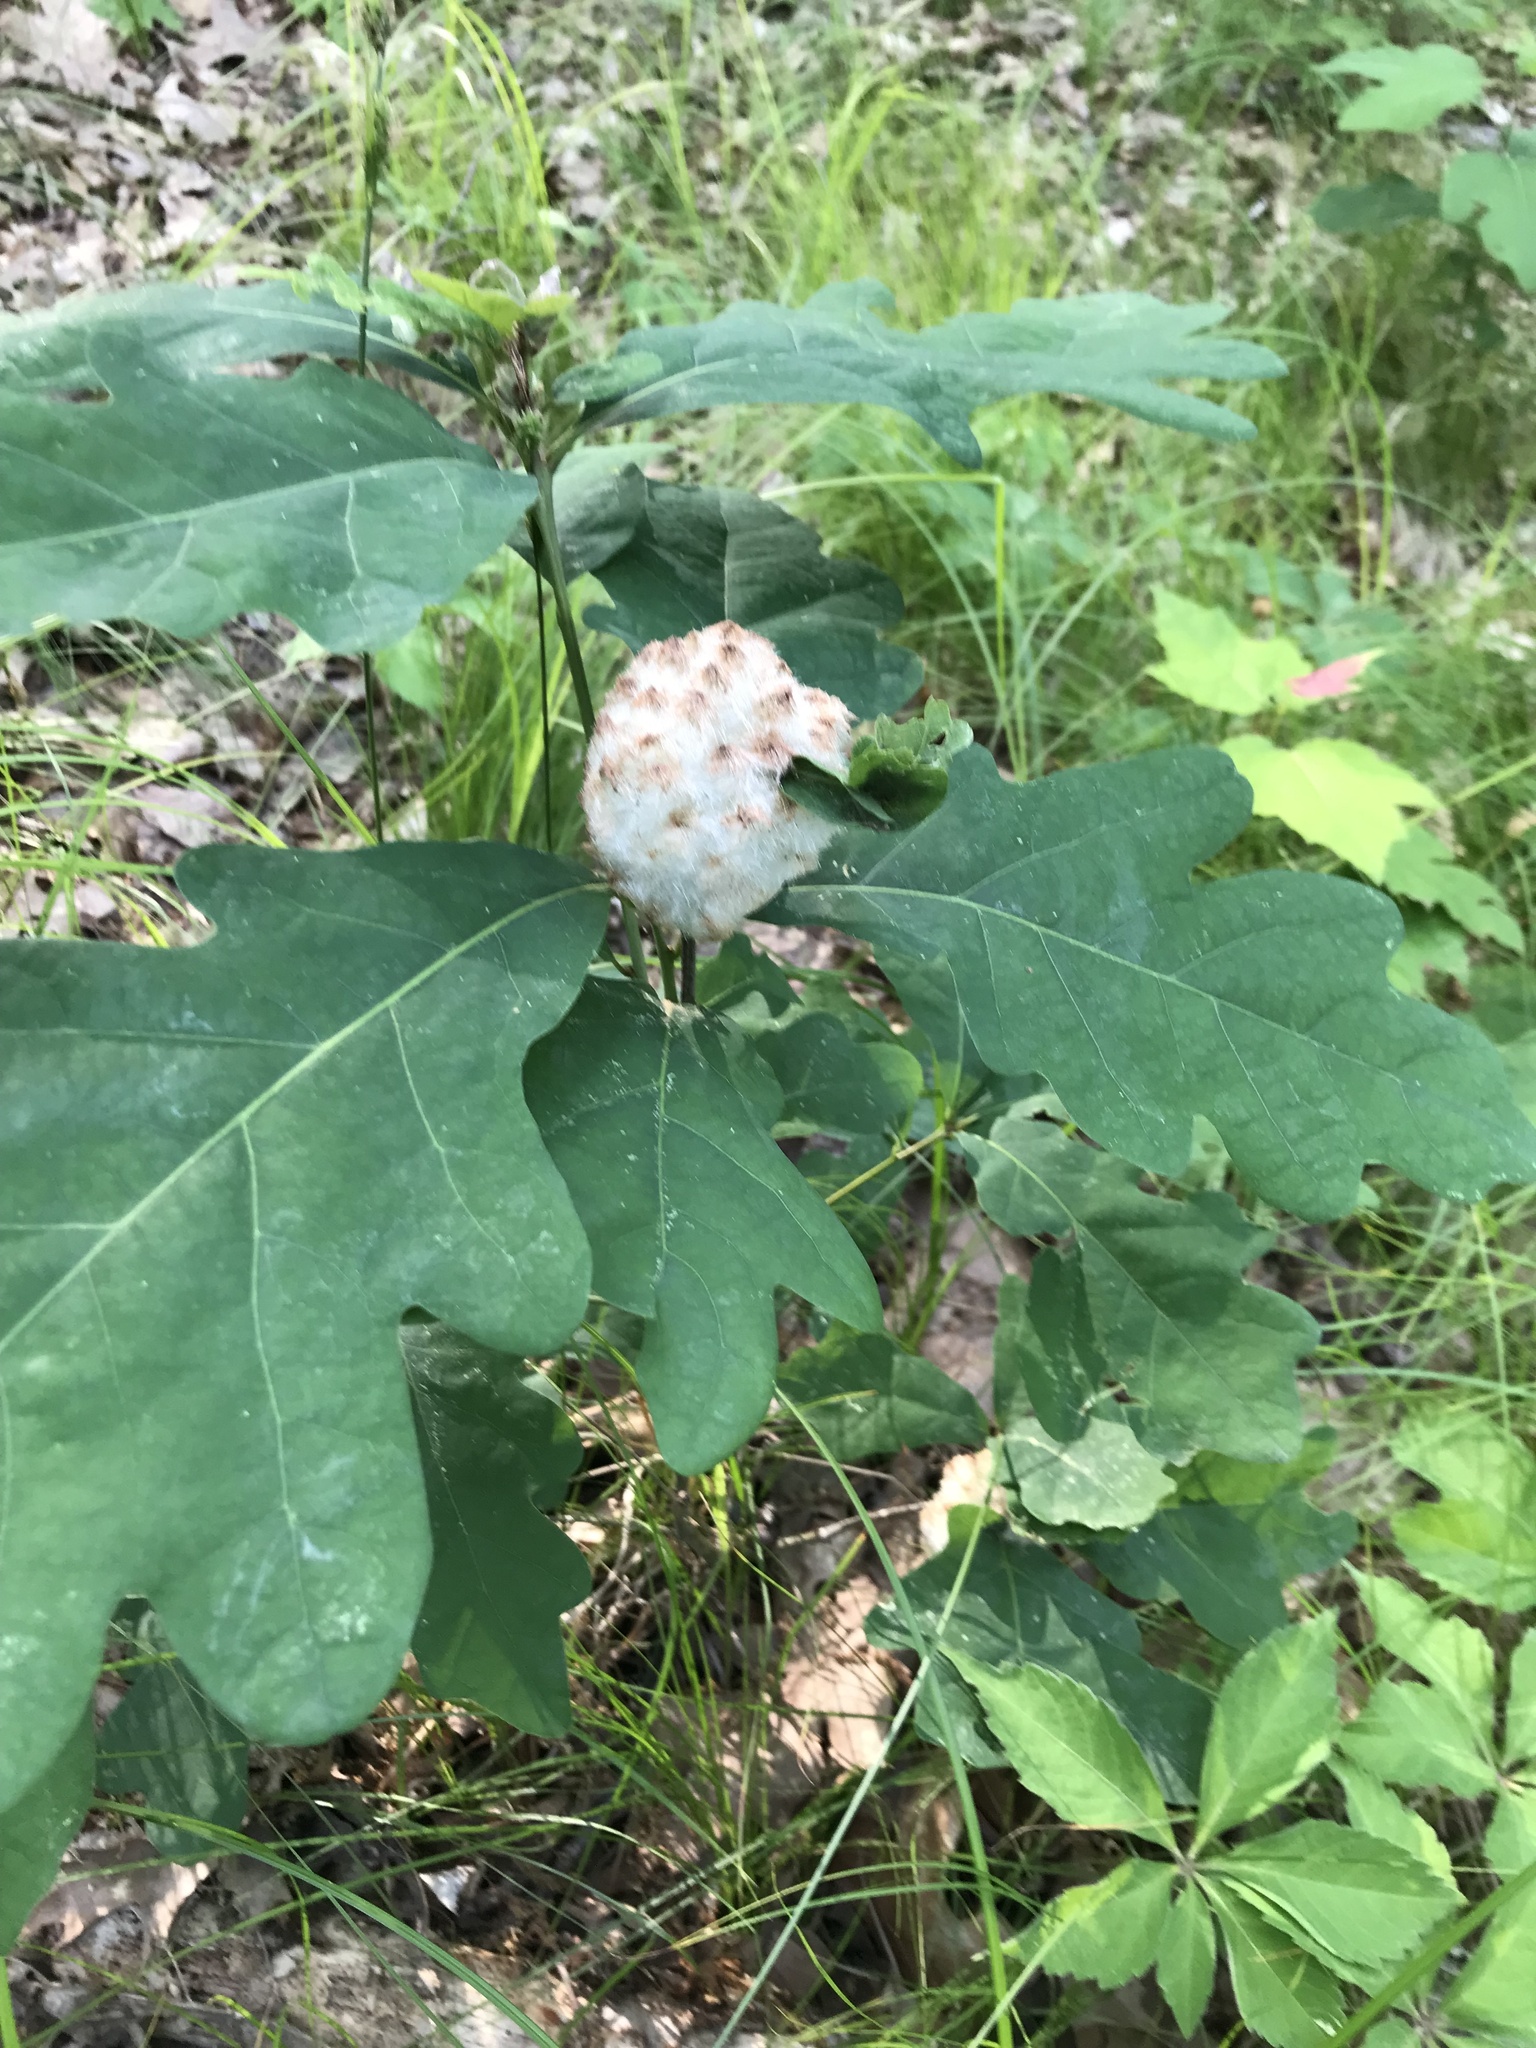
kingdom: Animalia
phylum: Arthropoda
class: Insecta
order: Hymenoptera
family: Cynipidae
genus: Callirhytis
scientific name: Callirhytis
